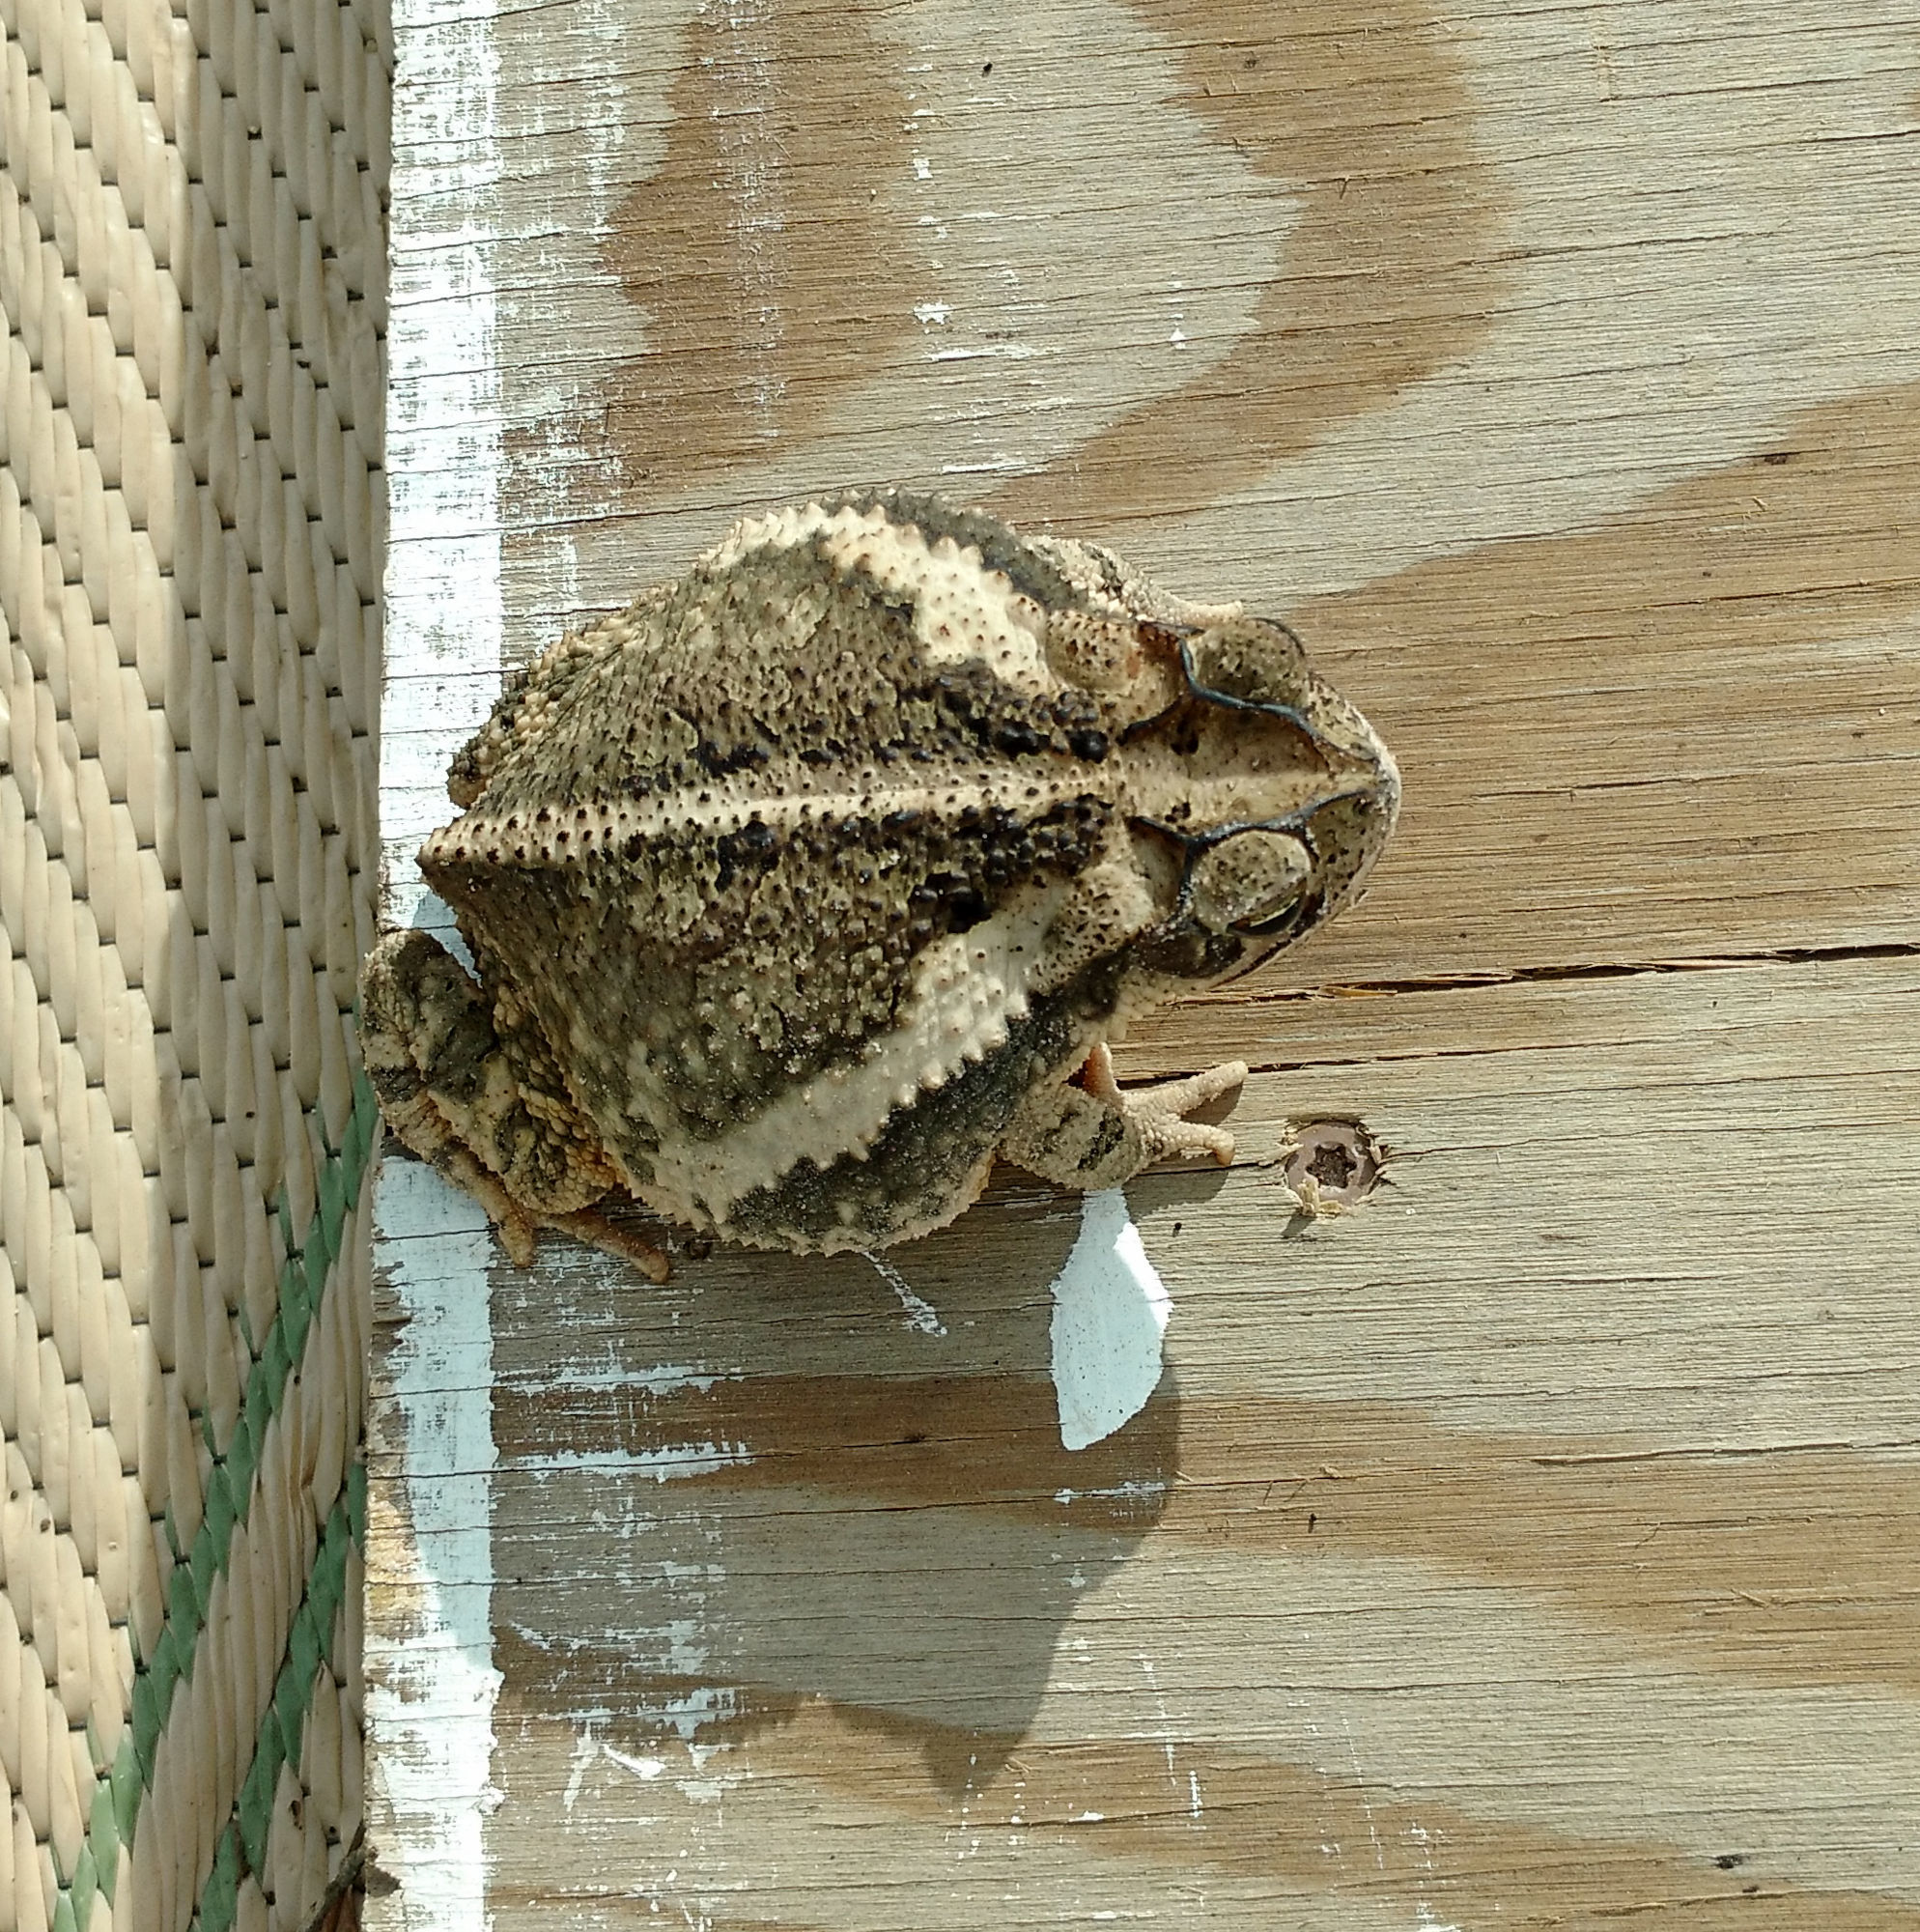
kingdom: Animalia
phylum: Chordata
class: Amphibia
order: Anura
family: Bufonidae
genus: Incilius
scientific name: Incilius nebulifer
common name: Gulf coast toad
